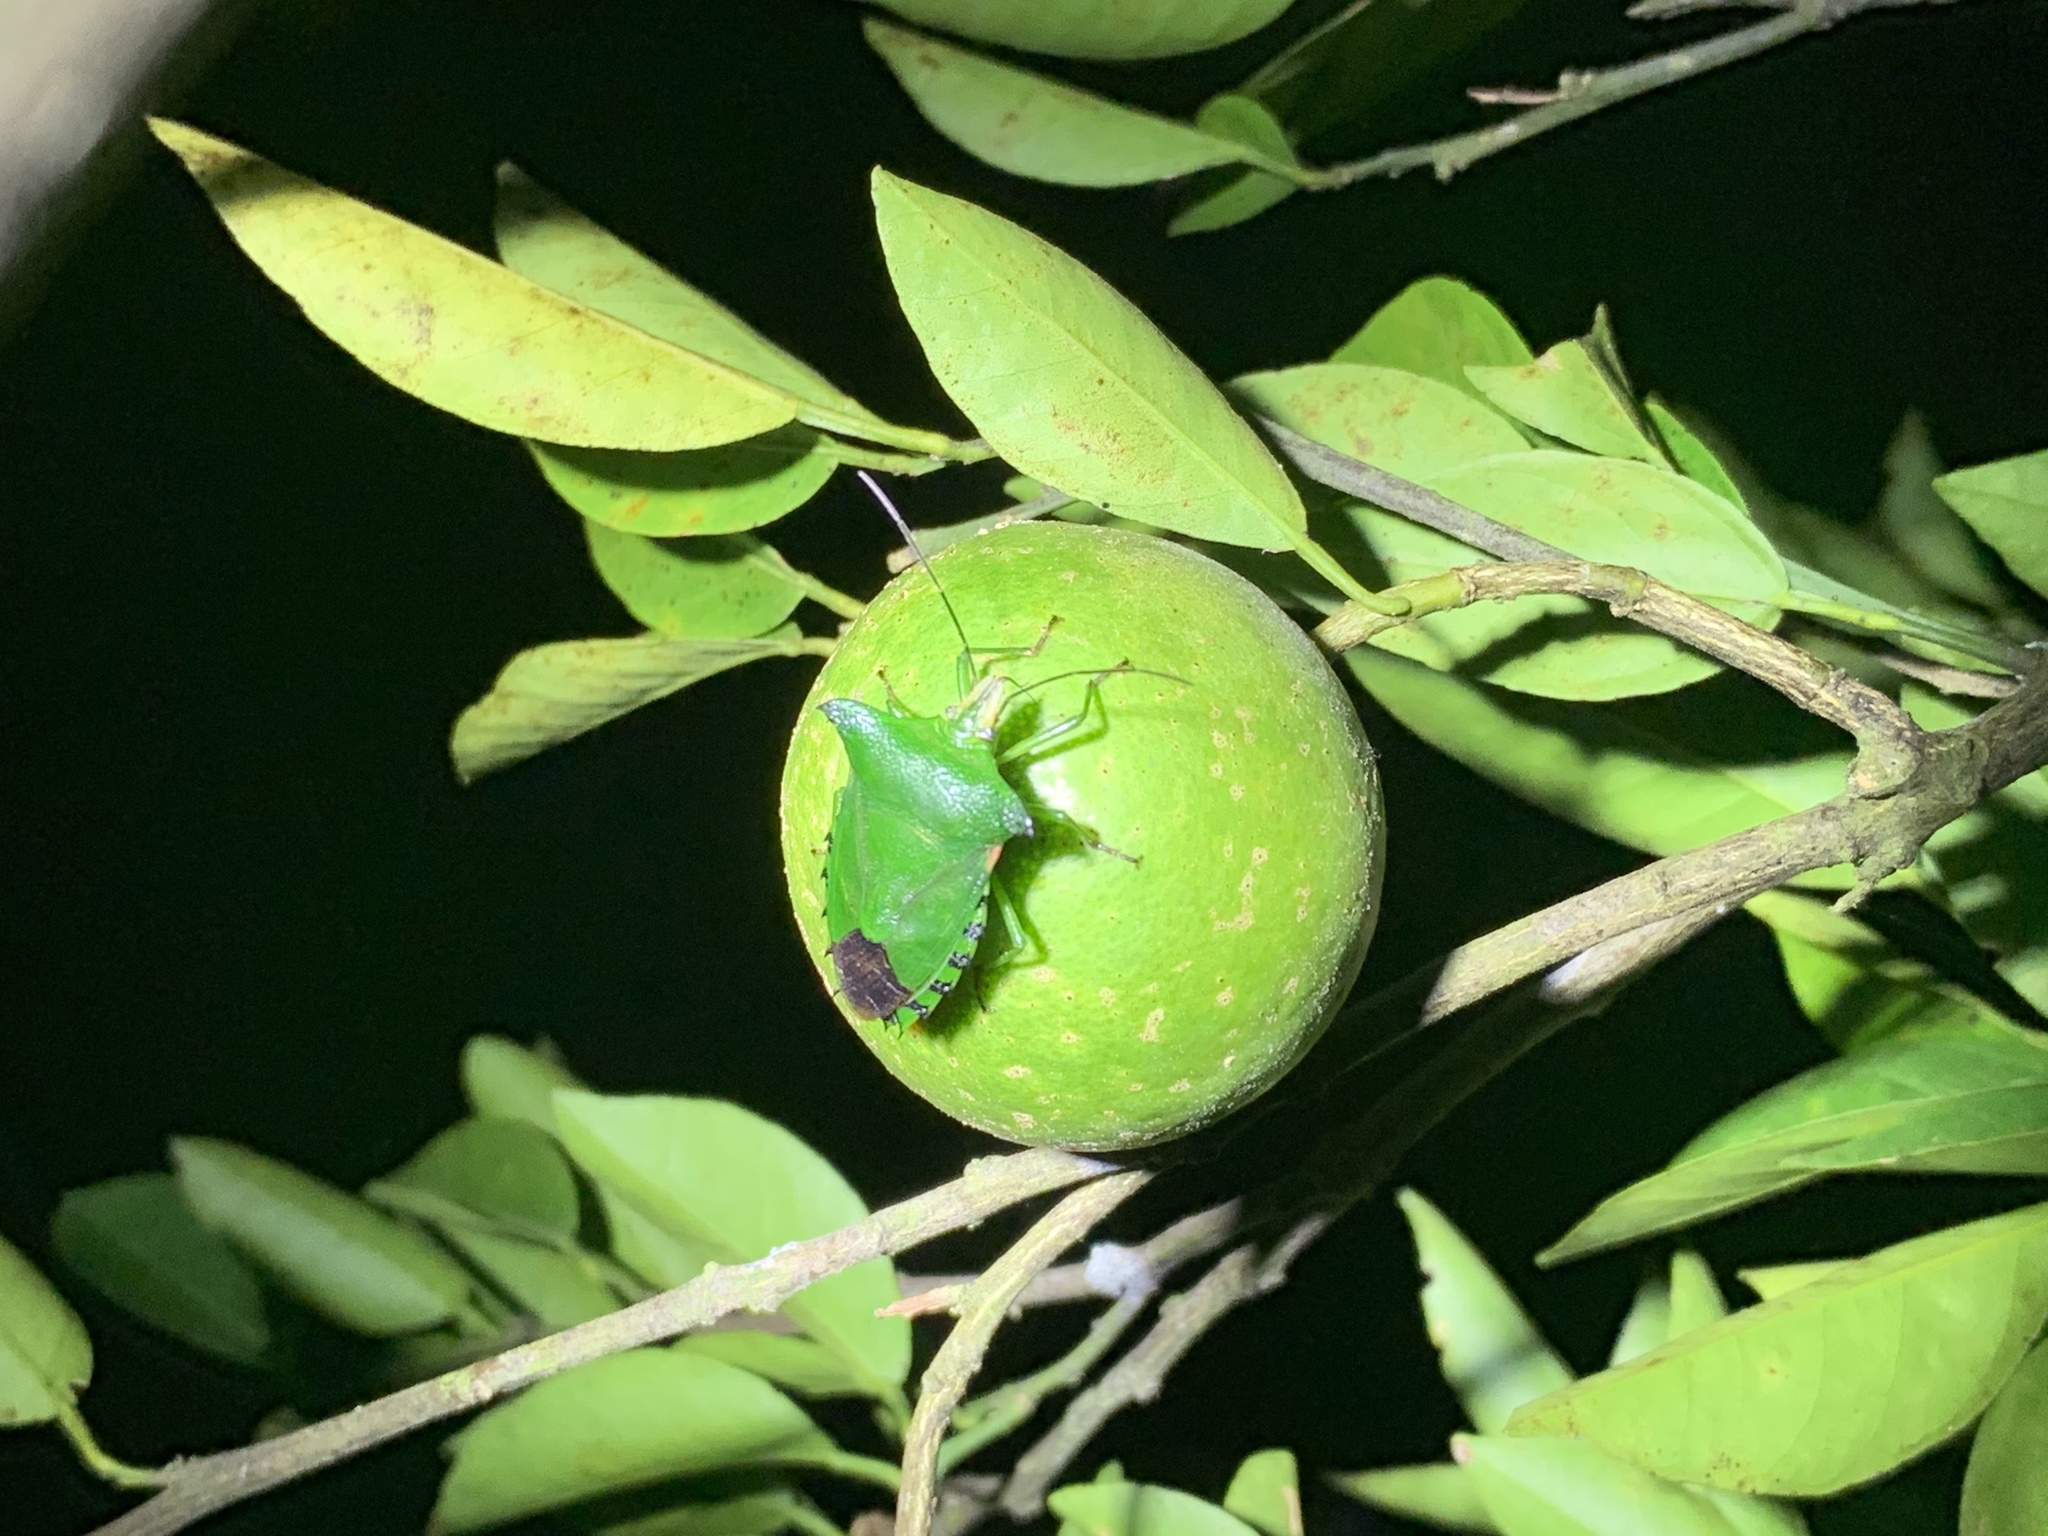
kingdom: Animalia
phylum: Arthropoda
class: Insecta
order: Hemiptera
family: Pentatomidae
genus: Rhynchocoris
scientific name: Rhynchocoris humeralis
